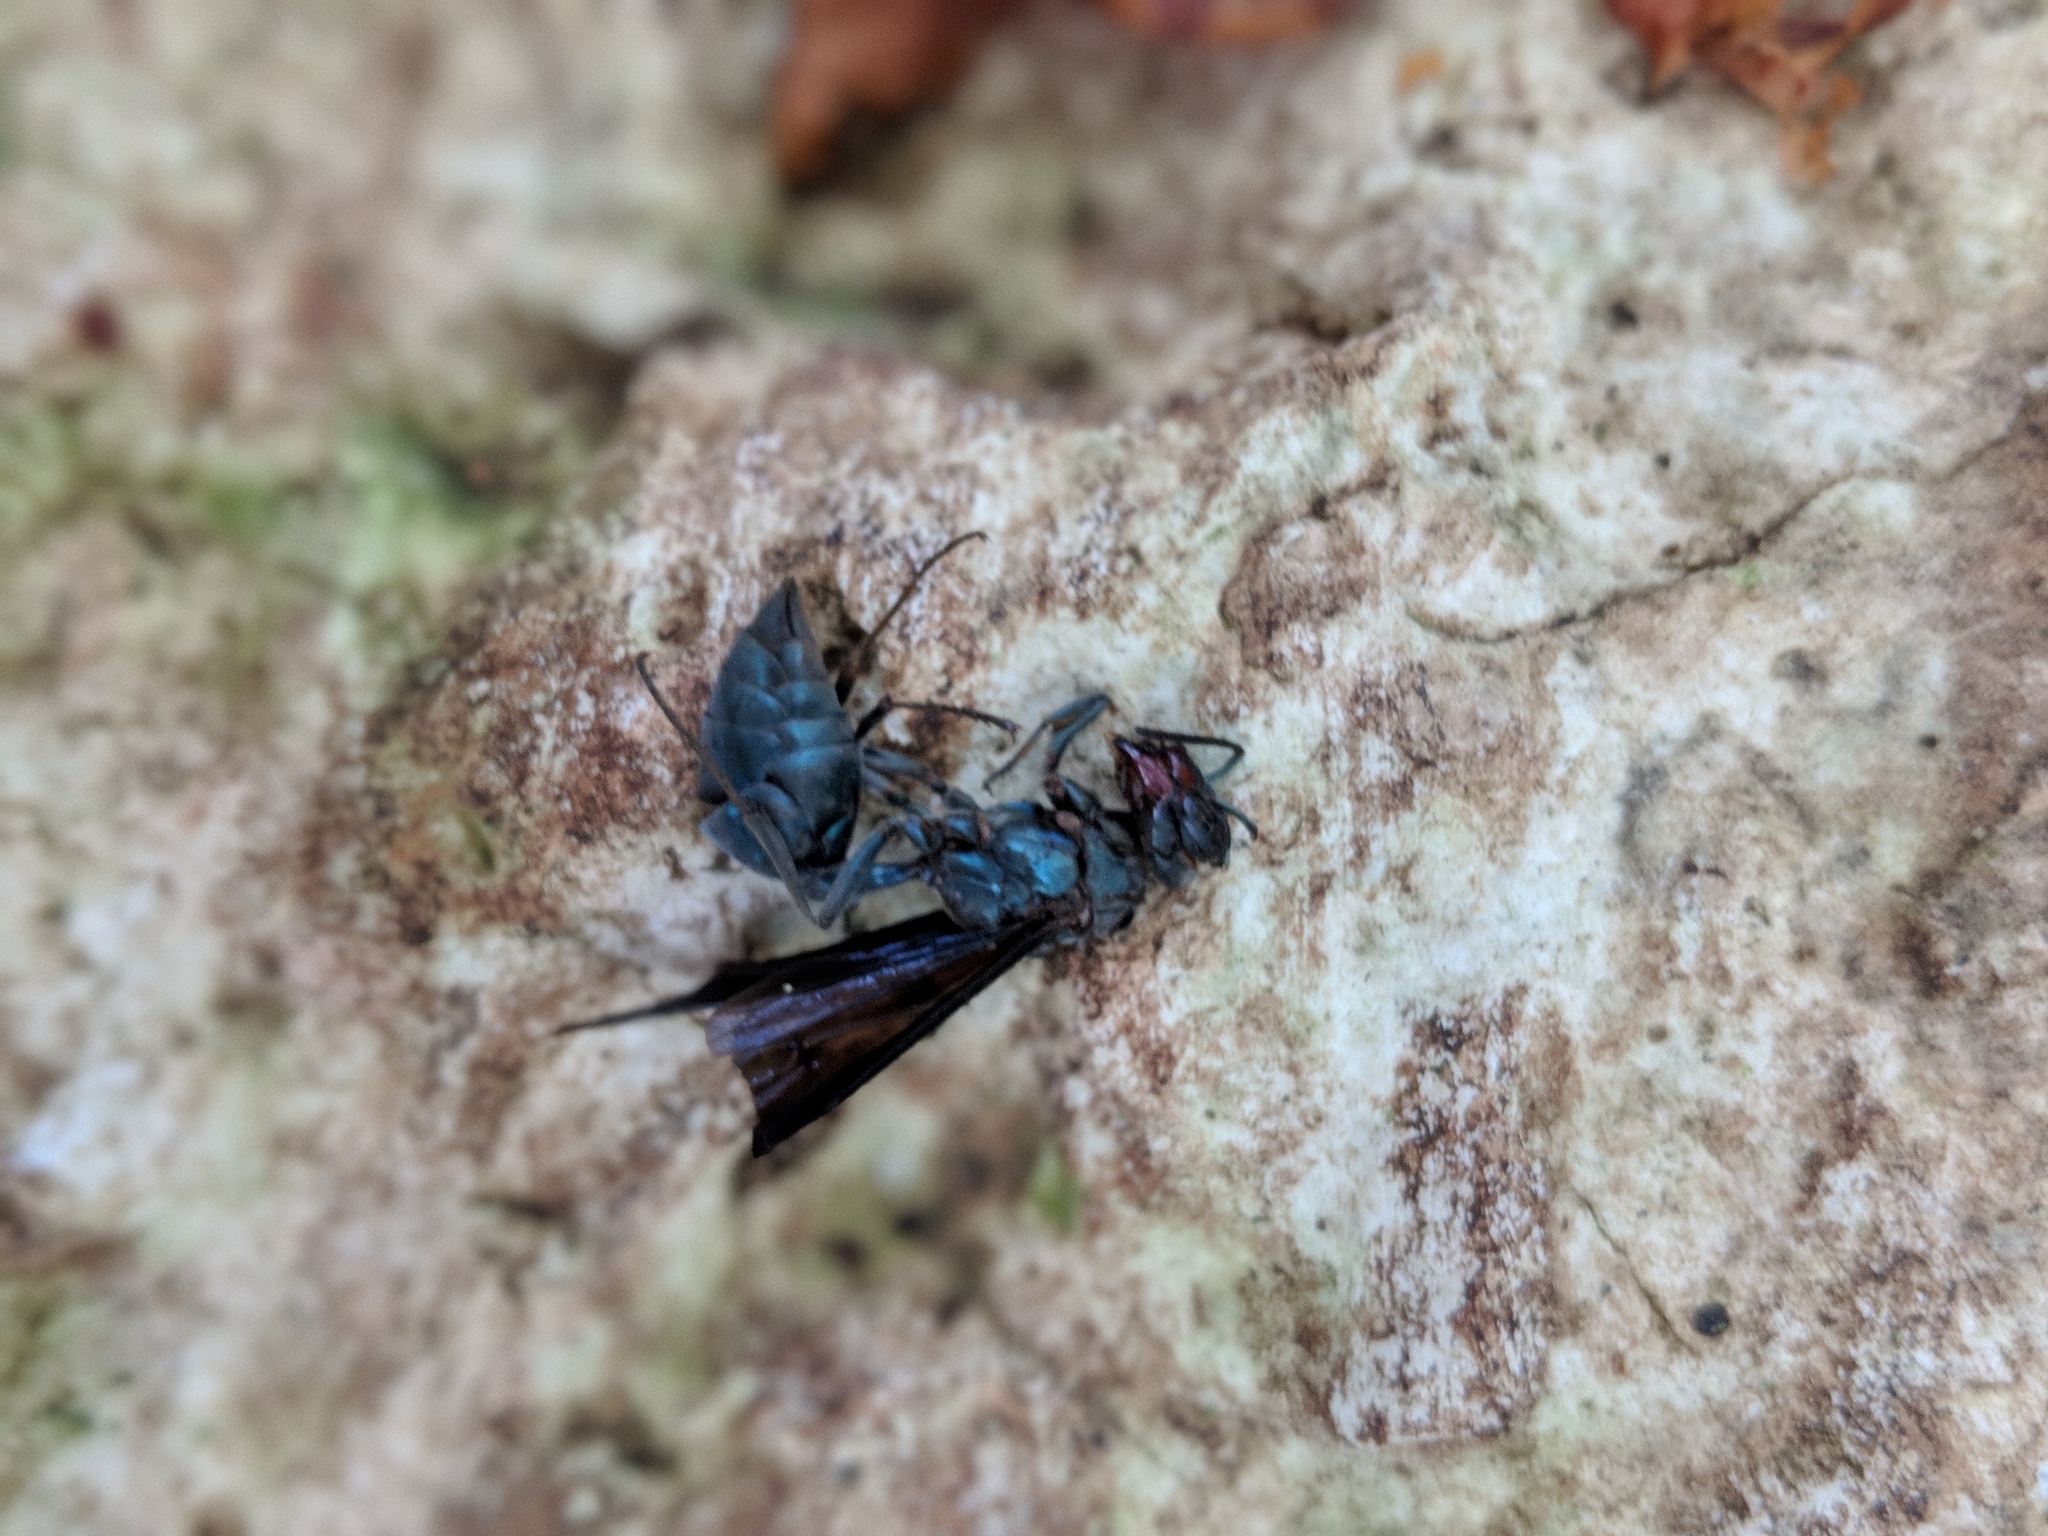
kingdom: Animalia
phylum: Arthropoda
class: Insecta
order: Hymenoptera
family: Vespidae
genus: Synoeca
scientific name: Synoeca septentrionalis
